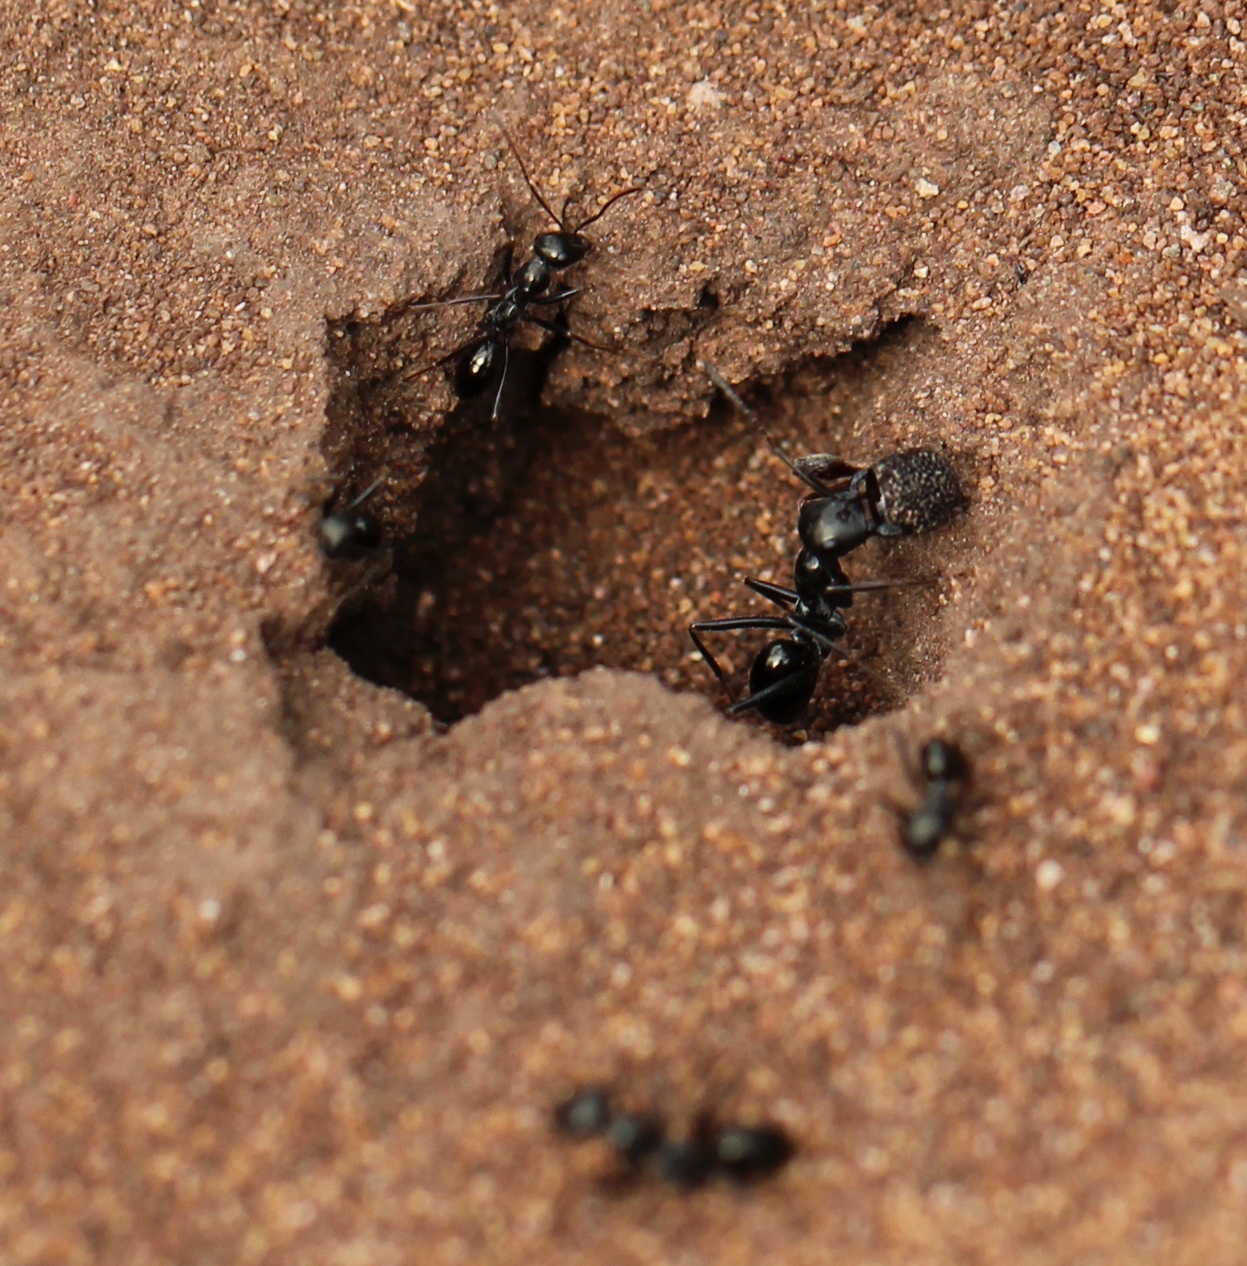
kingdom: Animalia
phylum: Arthropoda
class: Insecta
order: Hymenoptera
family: Formicidae
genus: Cataglyphis
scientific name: Cataglyphis aenescens
